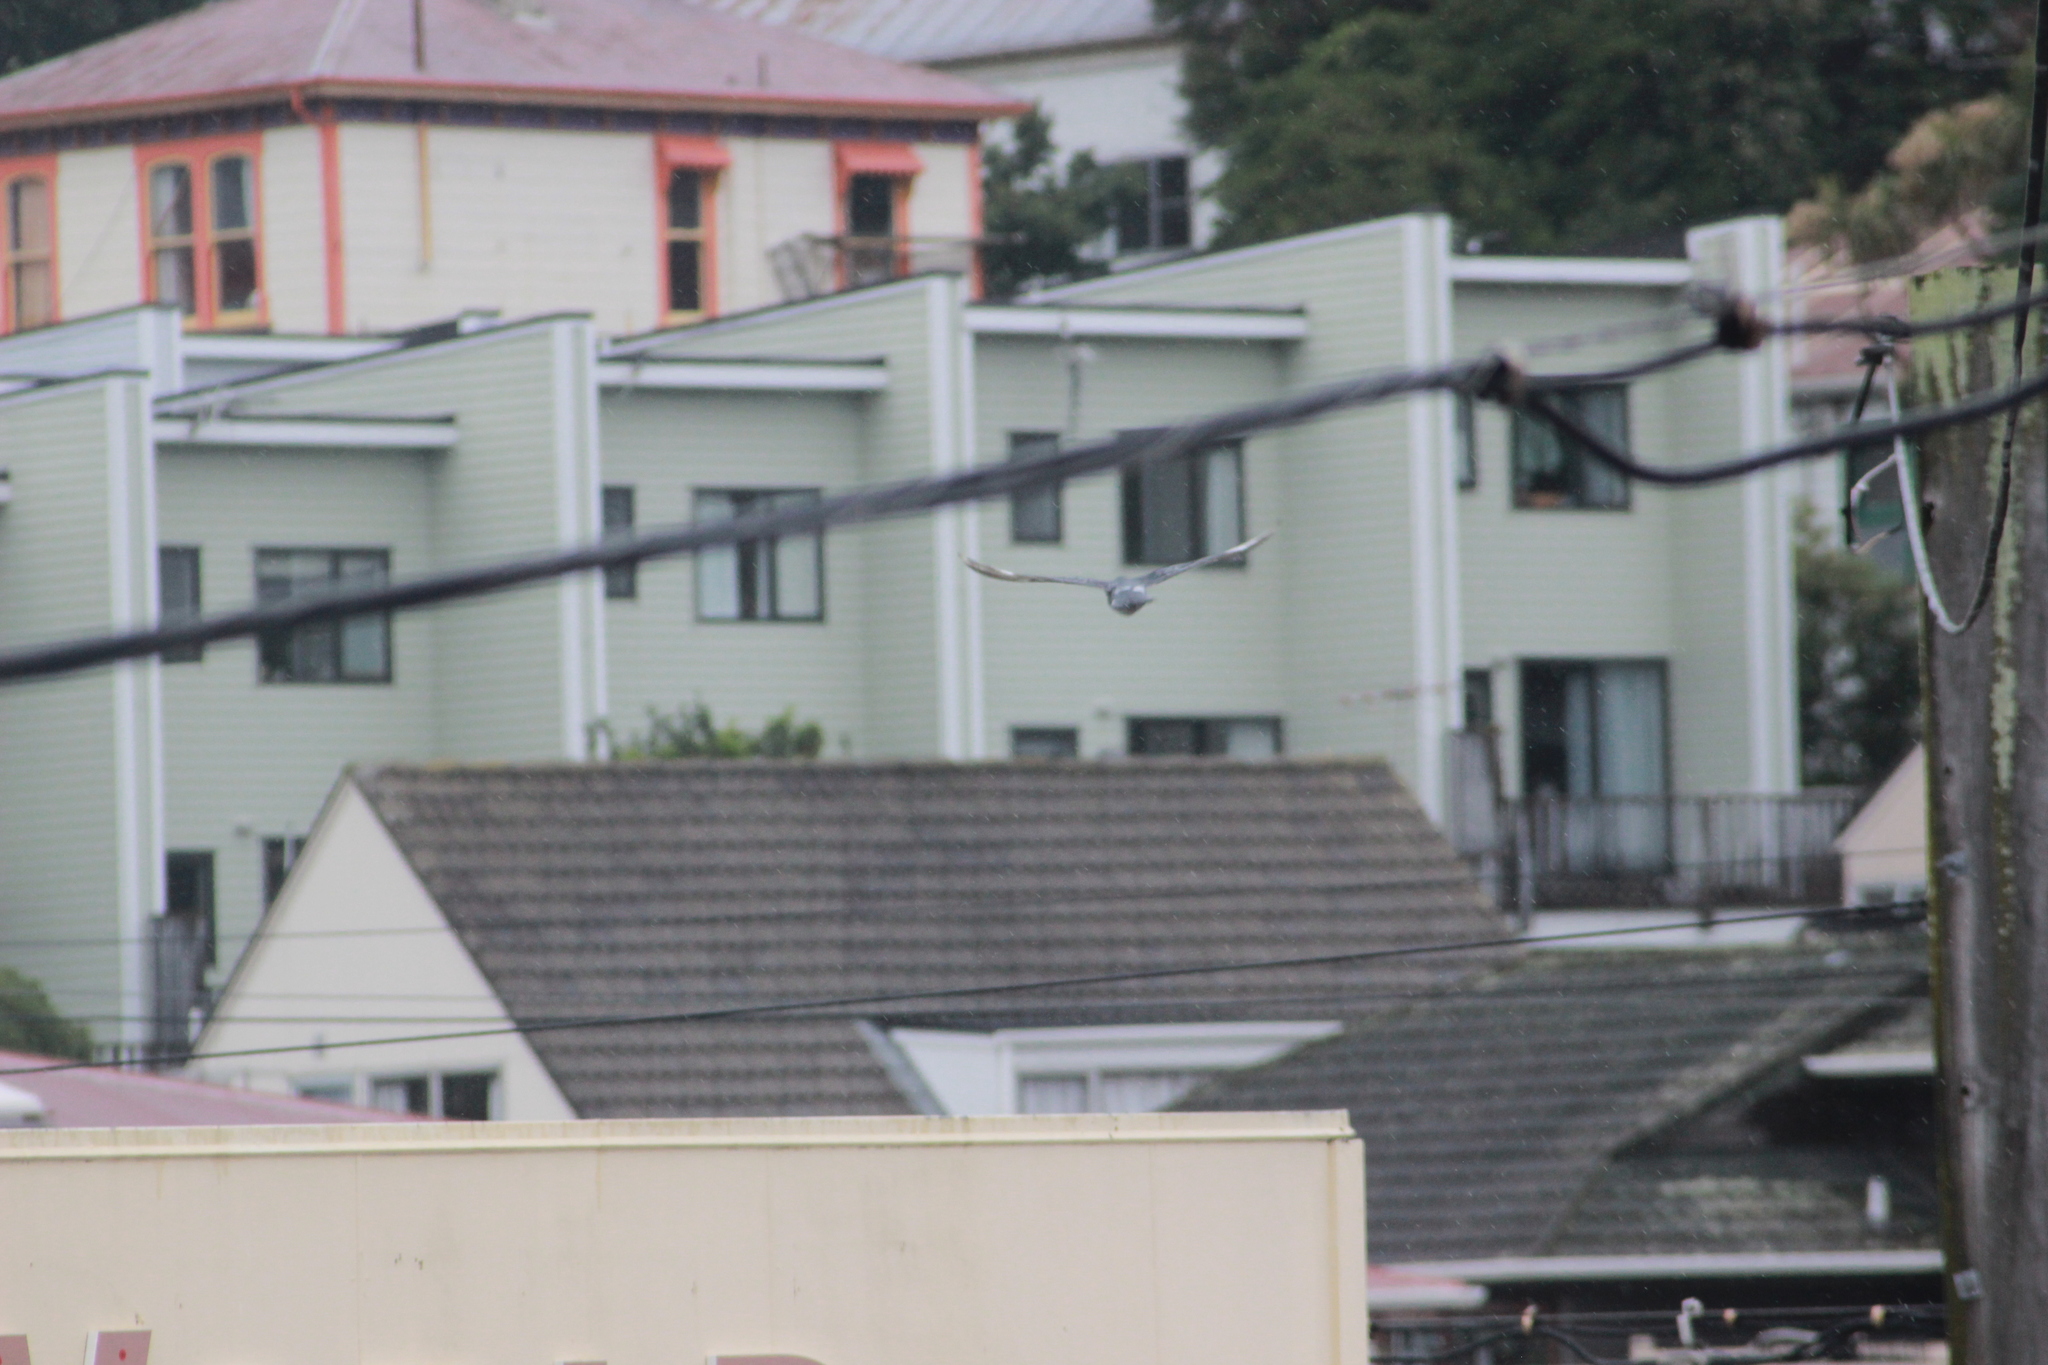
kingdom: Animalia
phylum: Chordata
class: Aves
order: Columbiformes
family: Columbidae
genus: Columba
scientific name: Columba livia
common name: Rock pigeon
